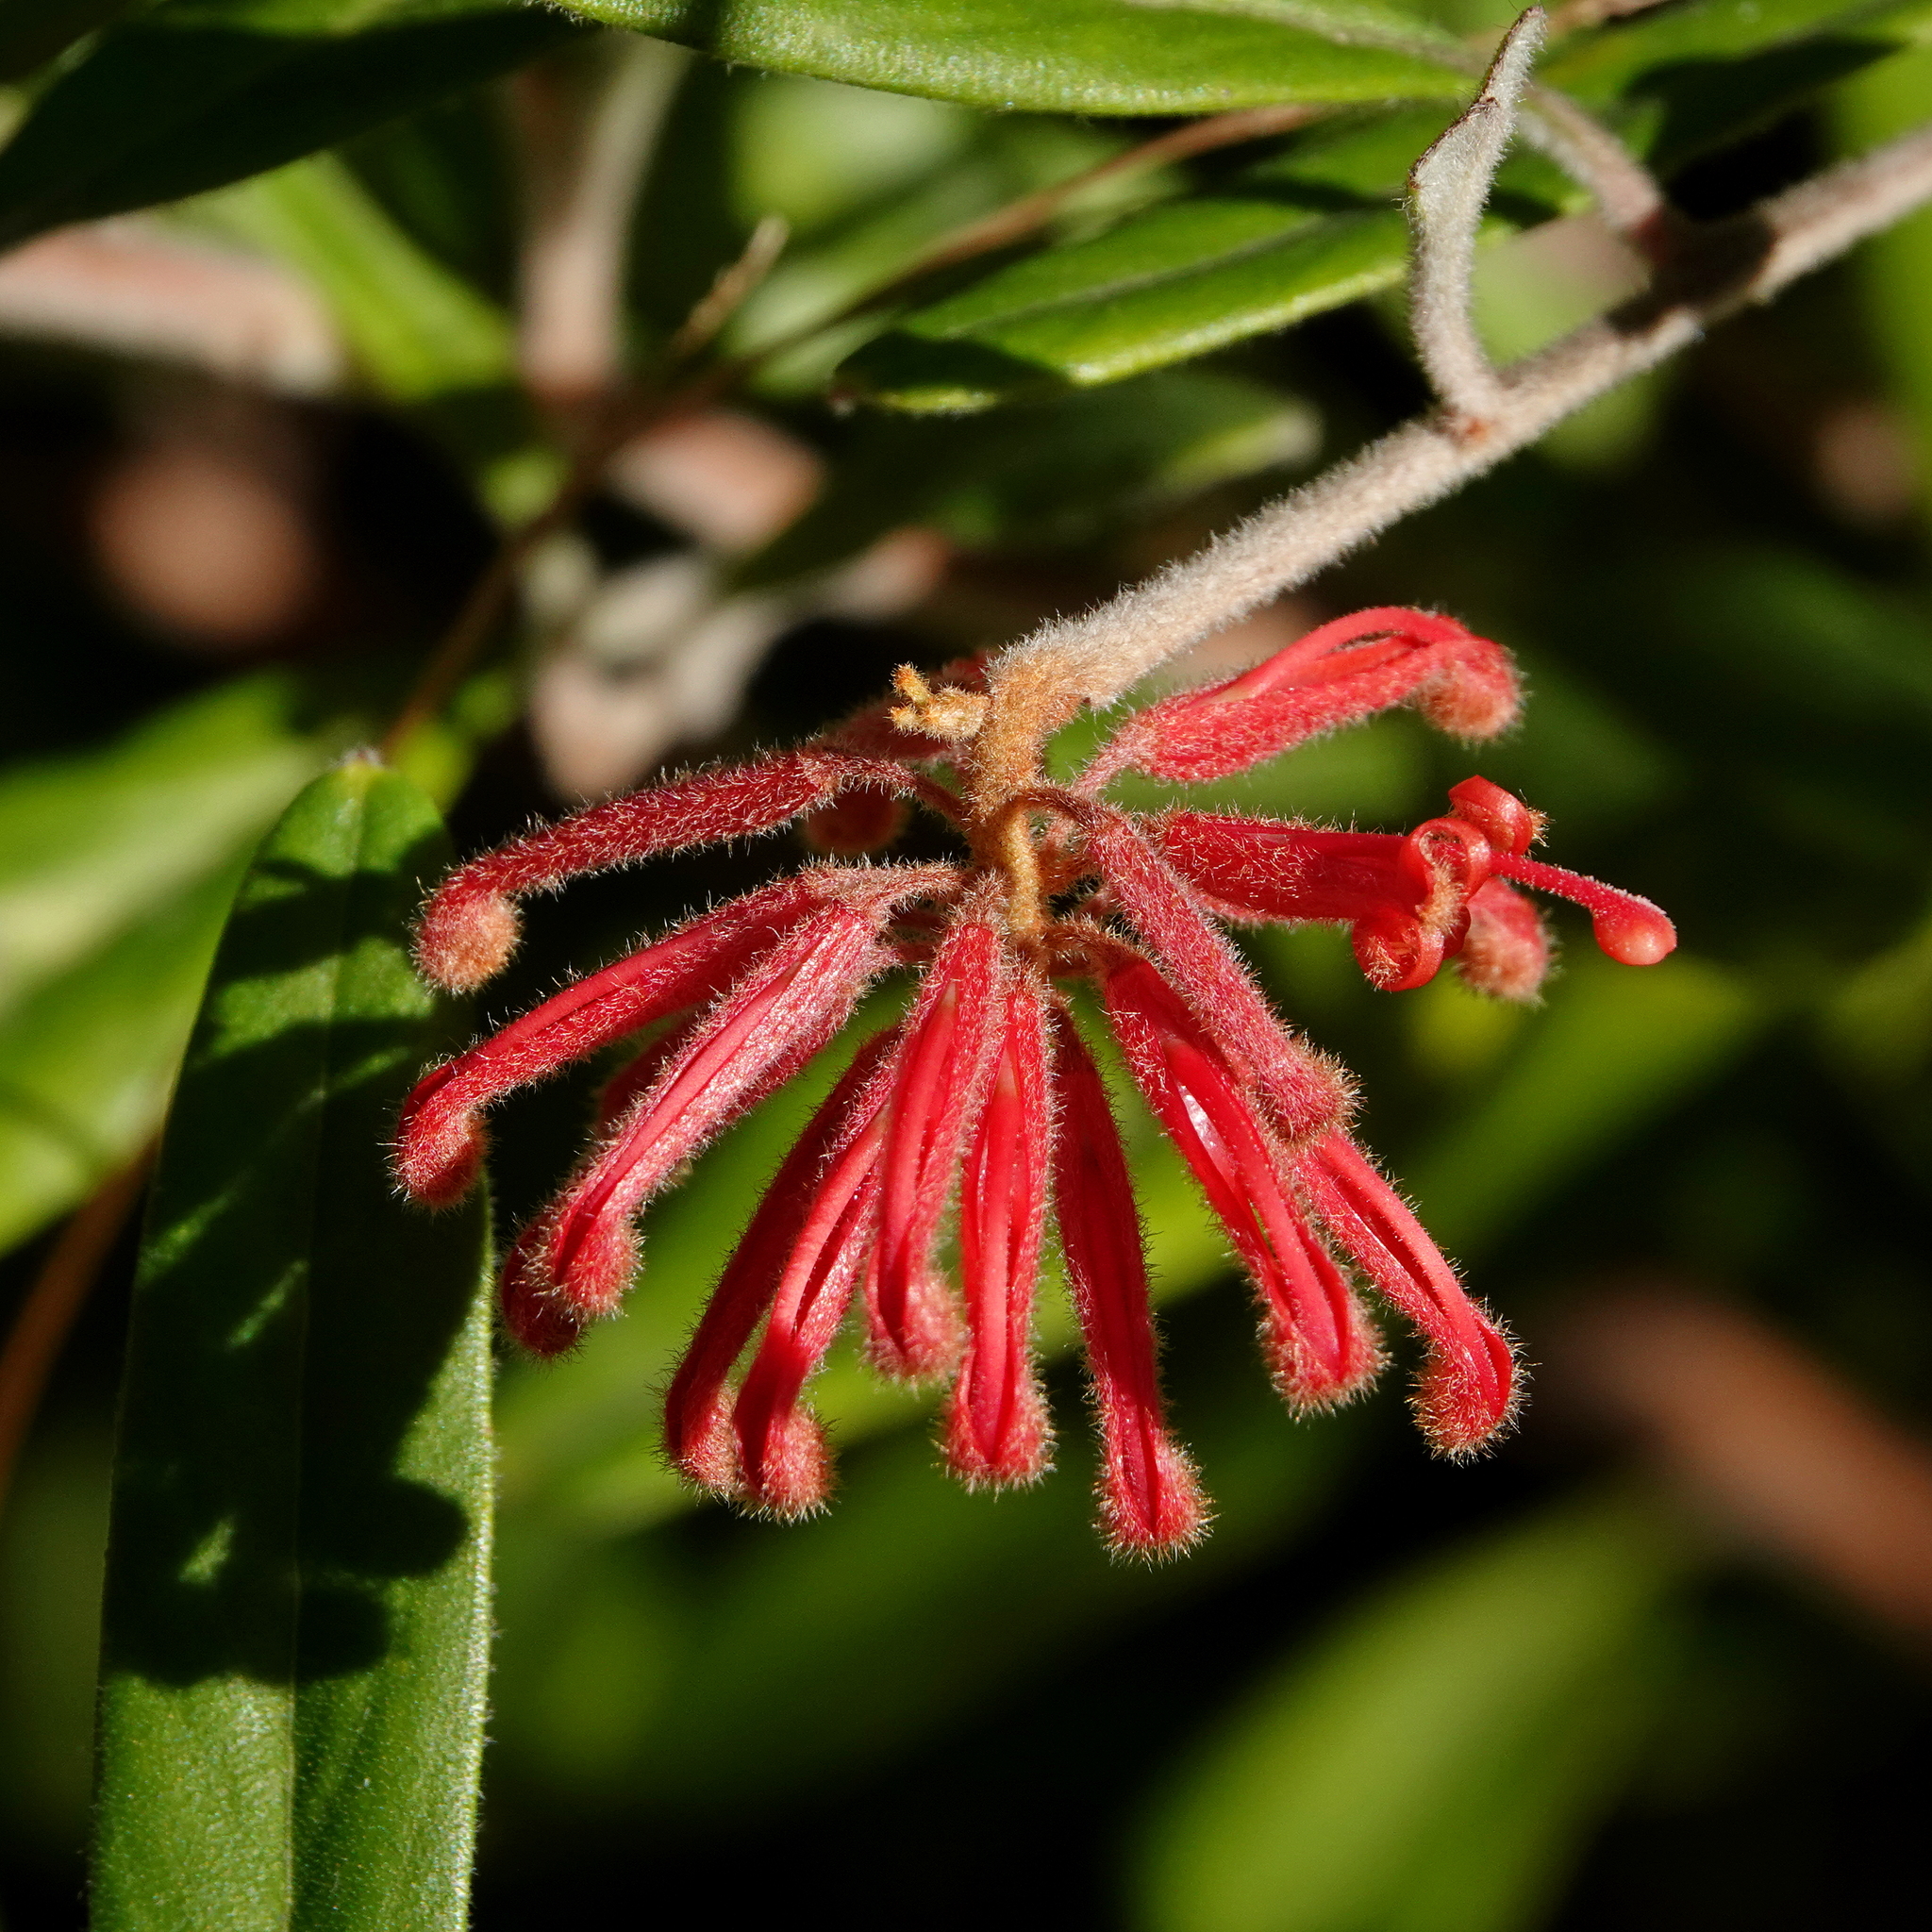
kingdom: Plantae
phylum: Tracheophyta
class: Magnoliopsida
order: Proteales
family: Proteaceae
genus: Grevillea
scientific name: Grevillea irrasa
